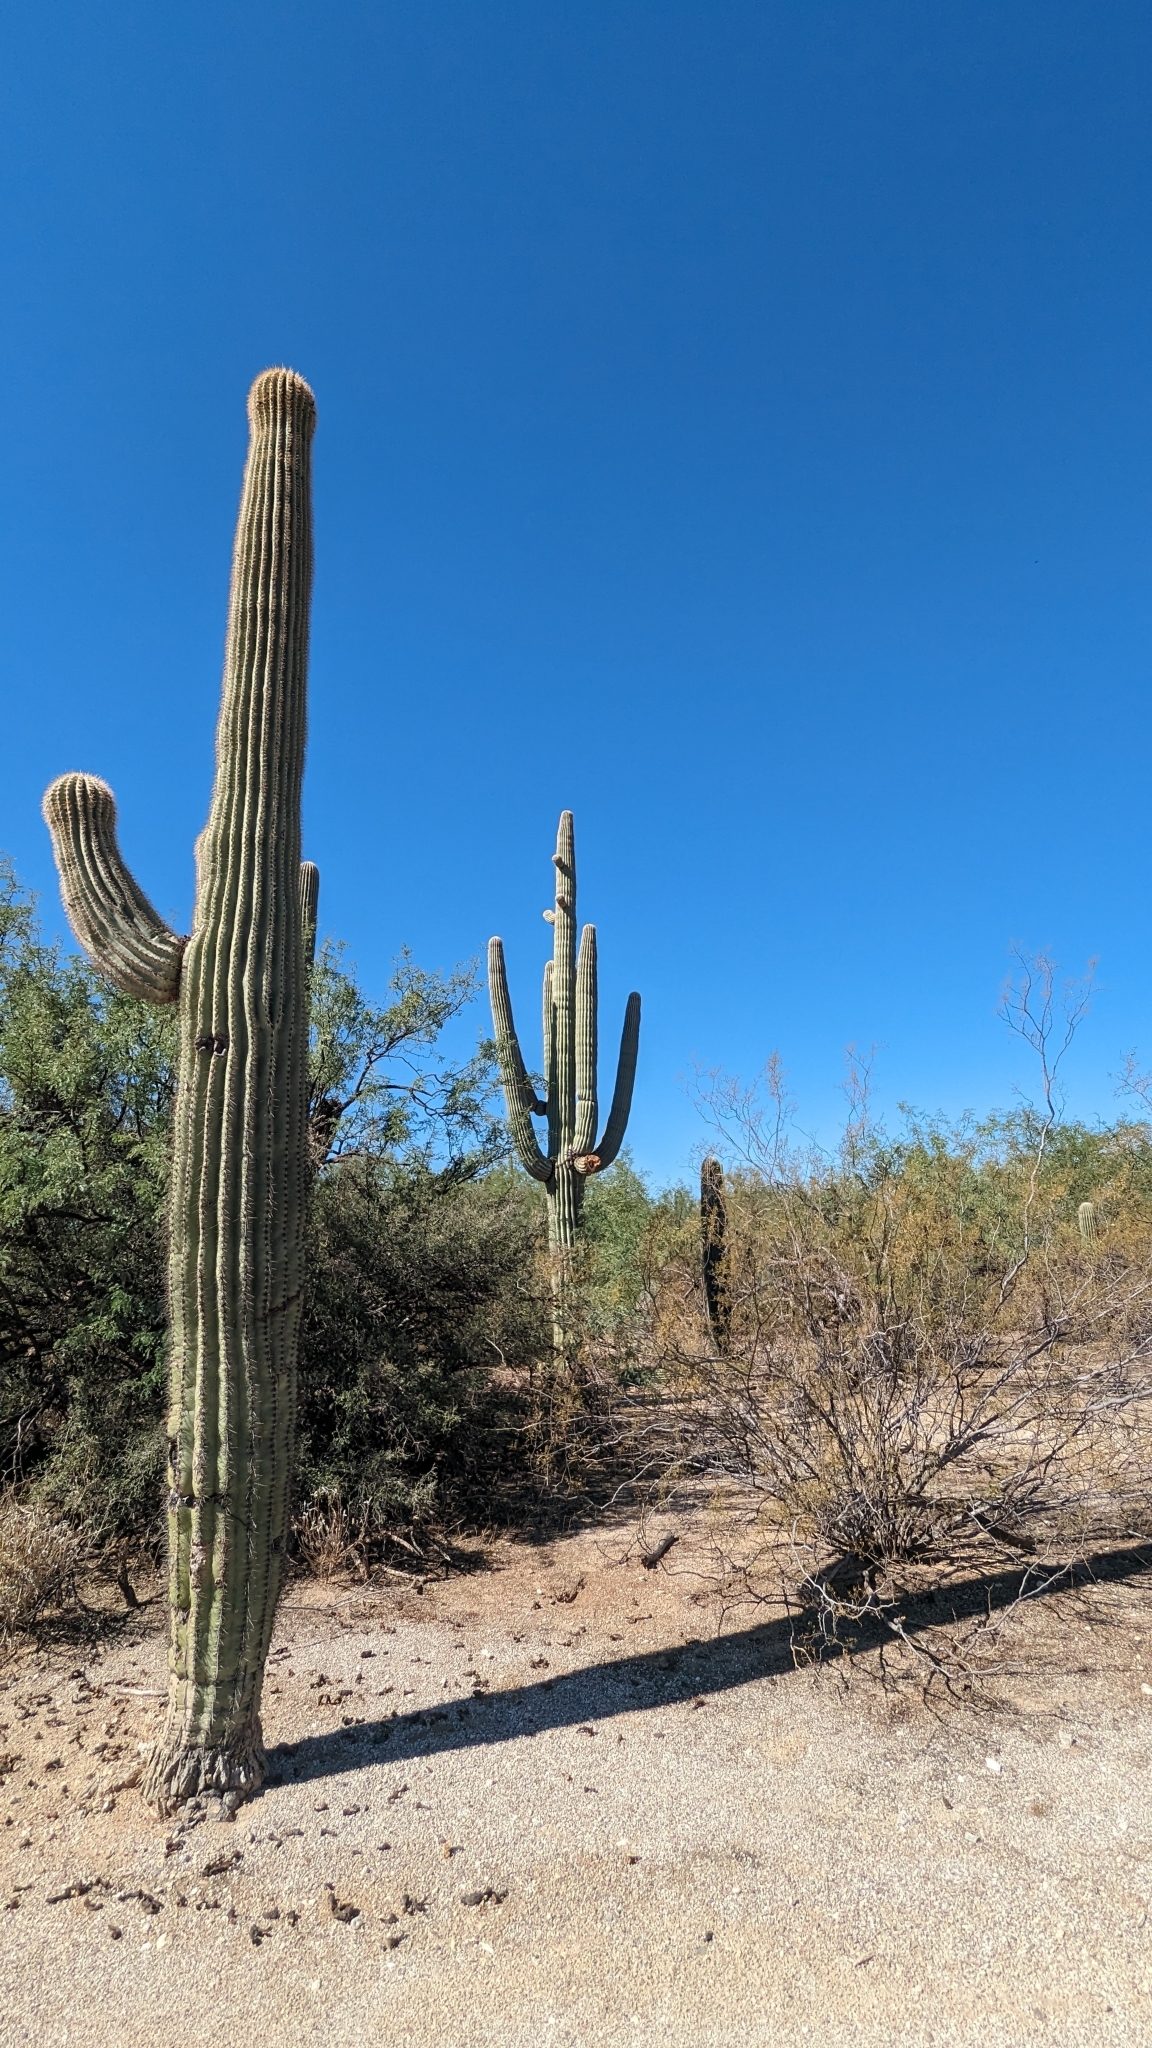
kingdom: Plantae
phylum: Tracheophyta
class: Magnoliopsida
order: Caryophyllales
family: Cactaceae
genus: Carnegiea
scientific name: Carnegiea gigantea
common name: Saguaro
